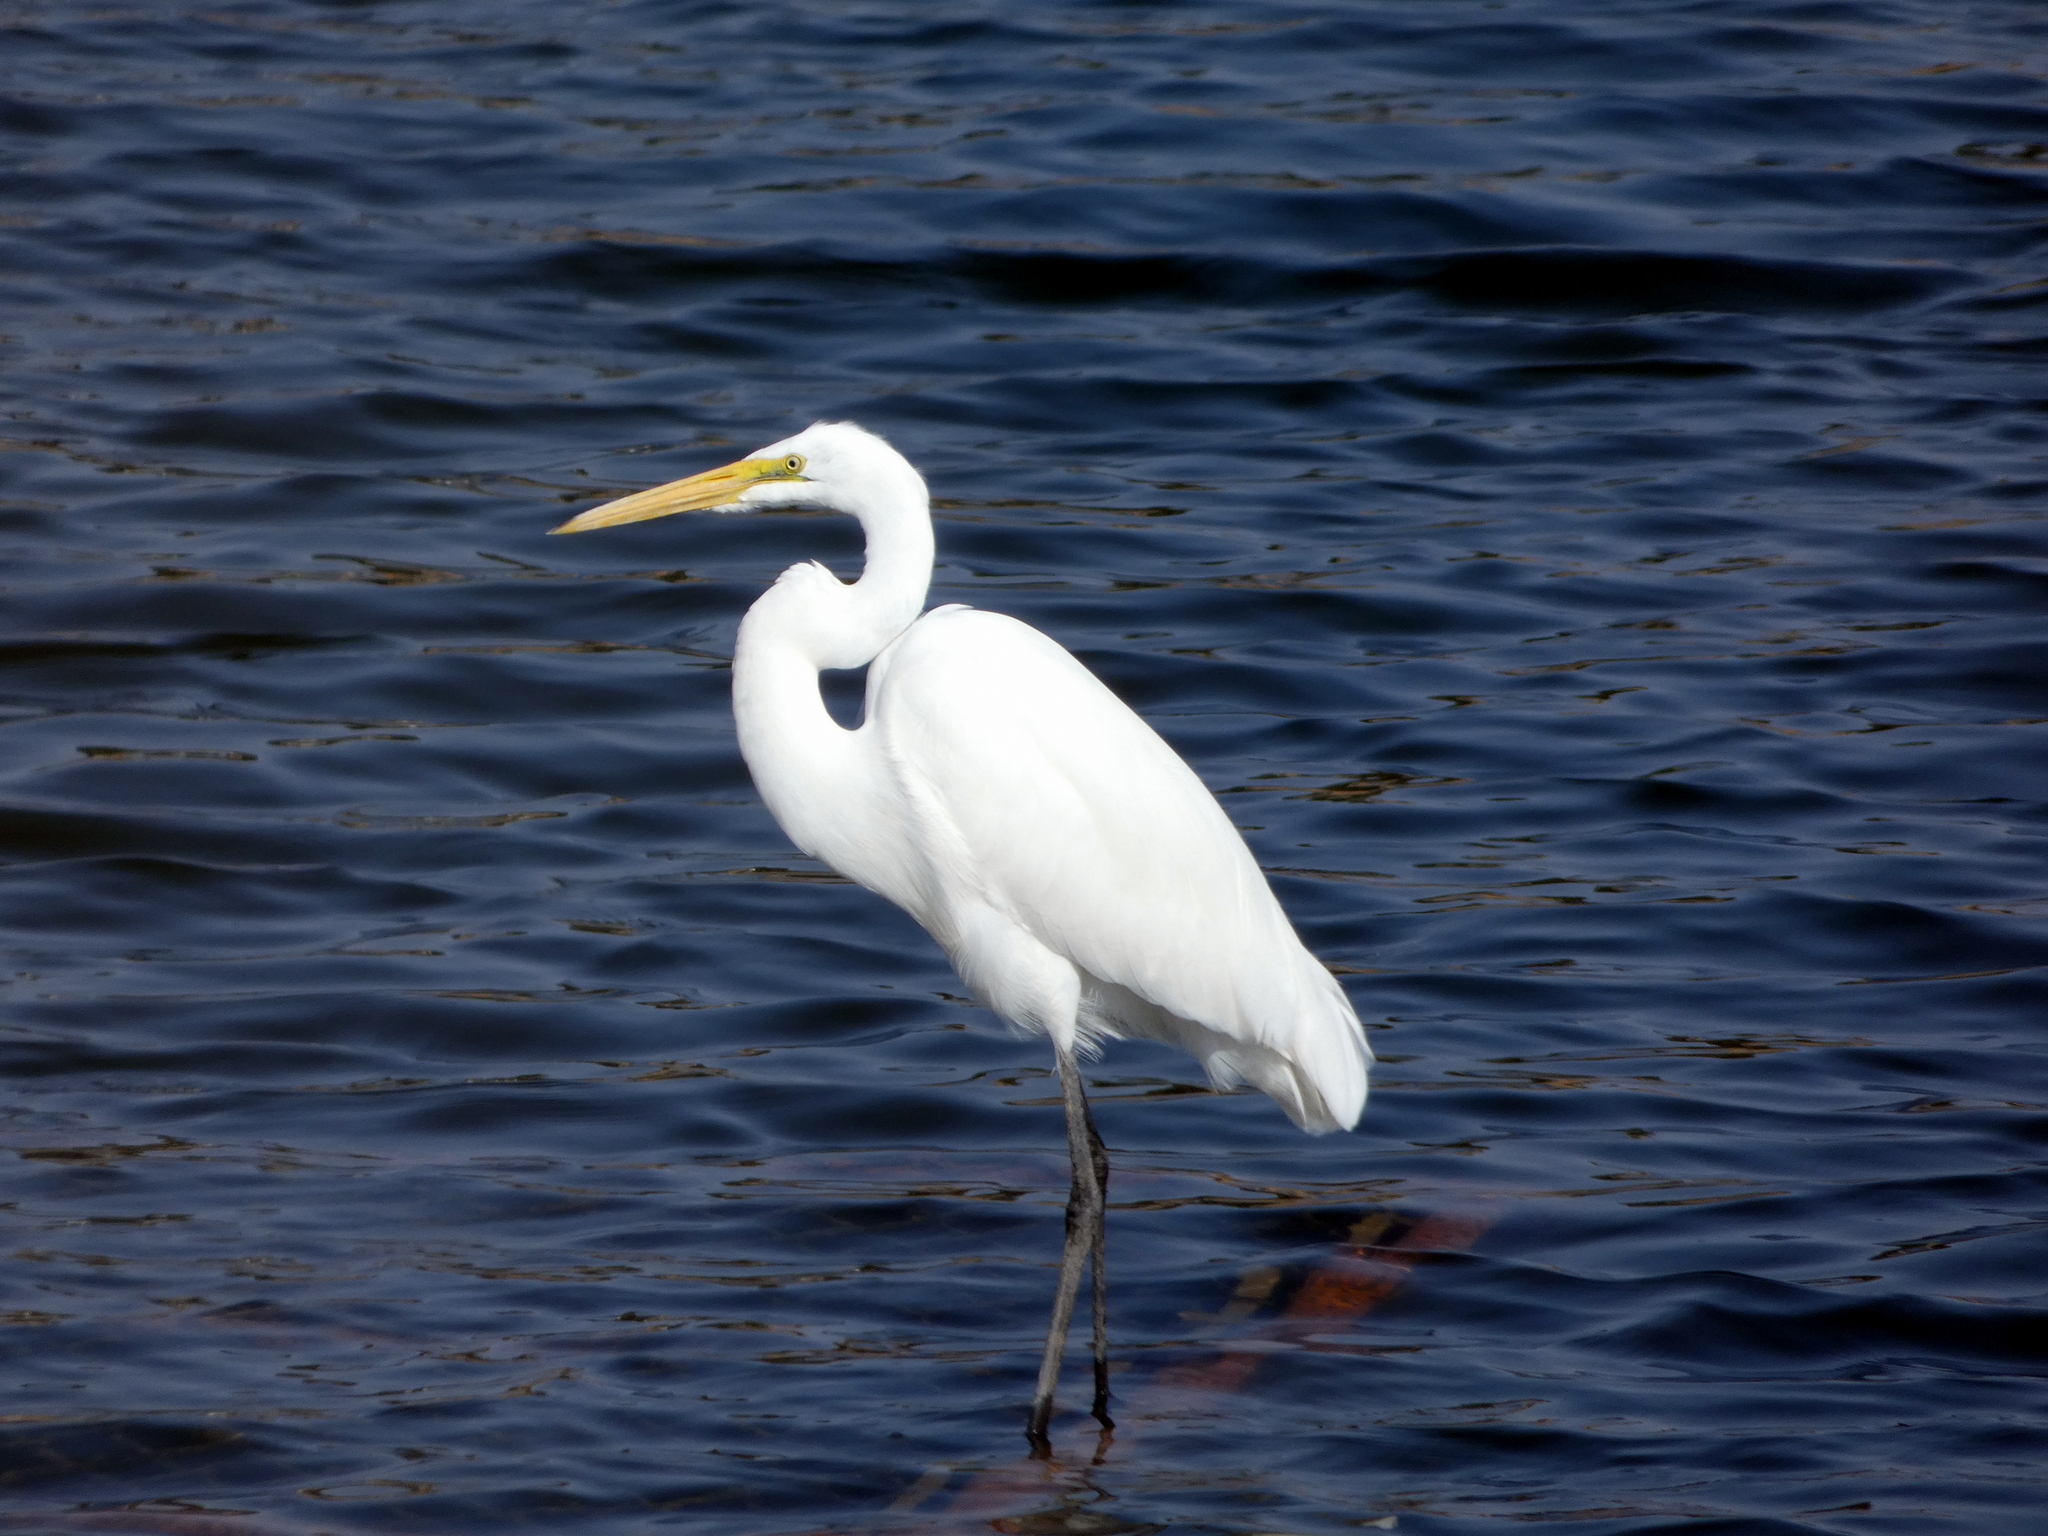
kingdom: Animalia
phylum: Chordata
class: Aves
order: Pelecaniformes
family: Ardeidae
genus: Ardea
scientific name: Ardea alba
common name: Great egret
